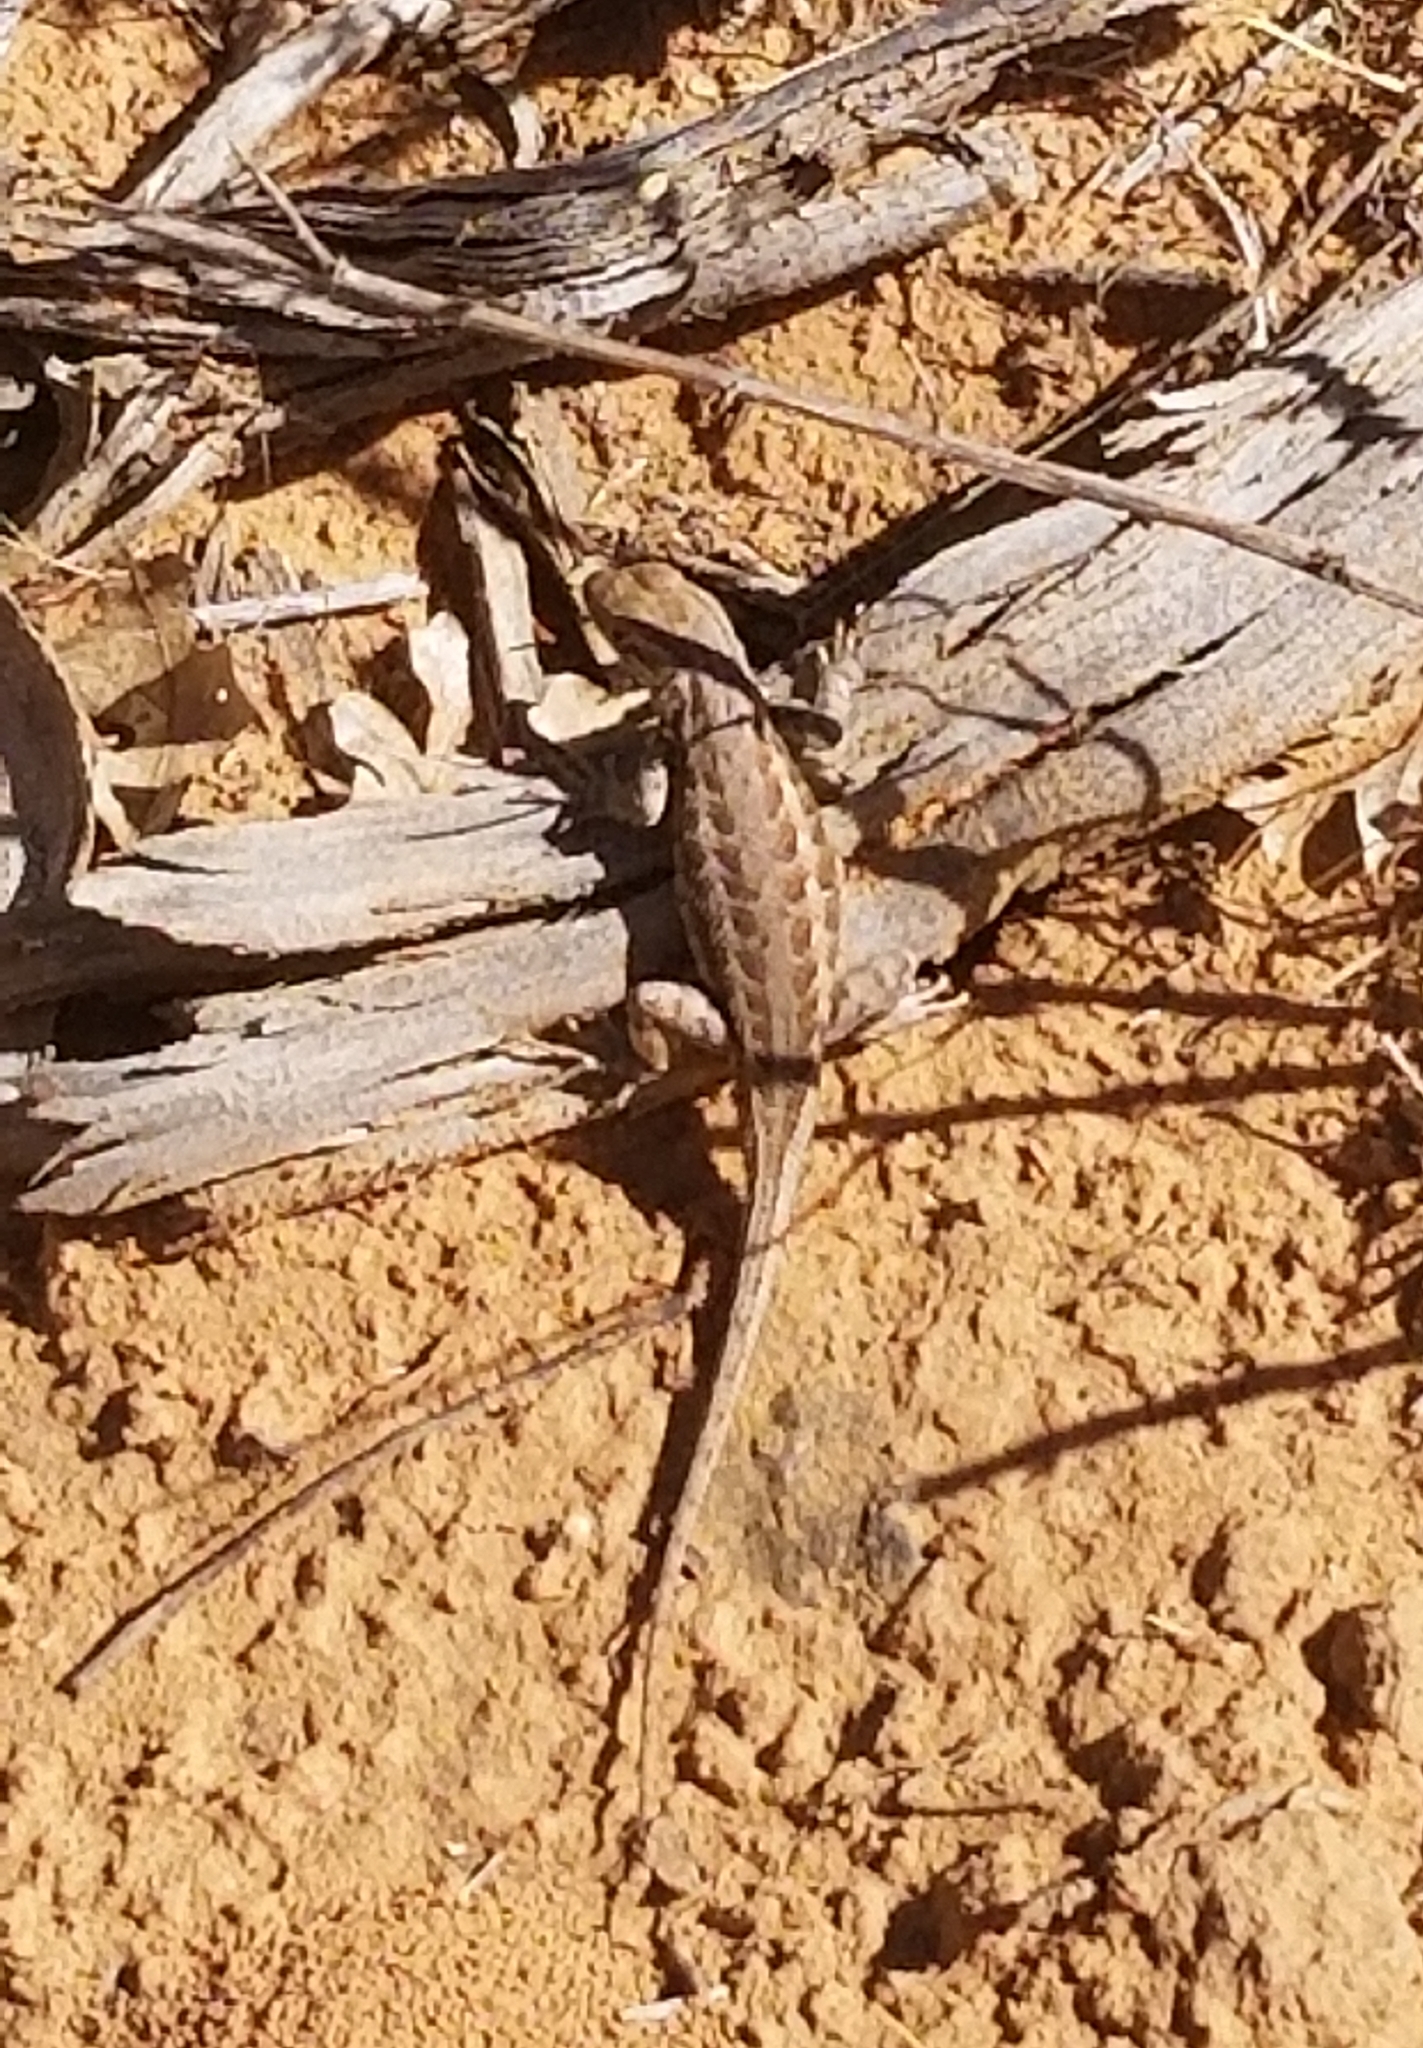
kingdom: Animalia
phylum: Chordata
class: Squamata
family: Phrynosomatidae
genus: Sceloporus
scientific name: Sceloporus graciosus
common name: Sagebrush lizard
